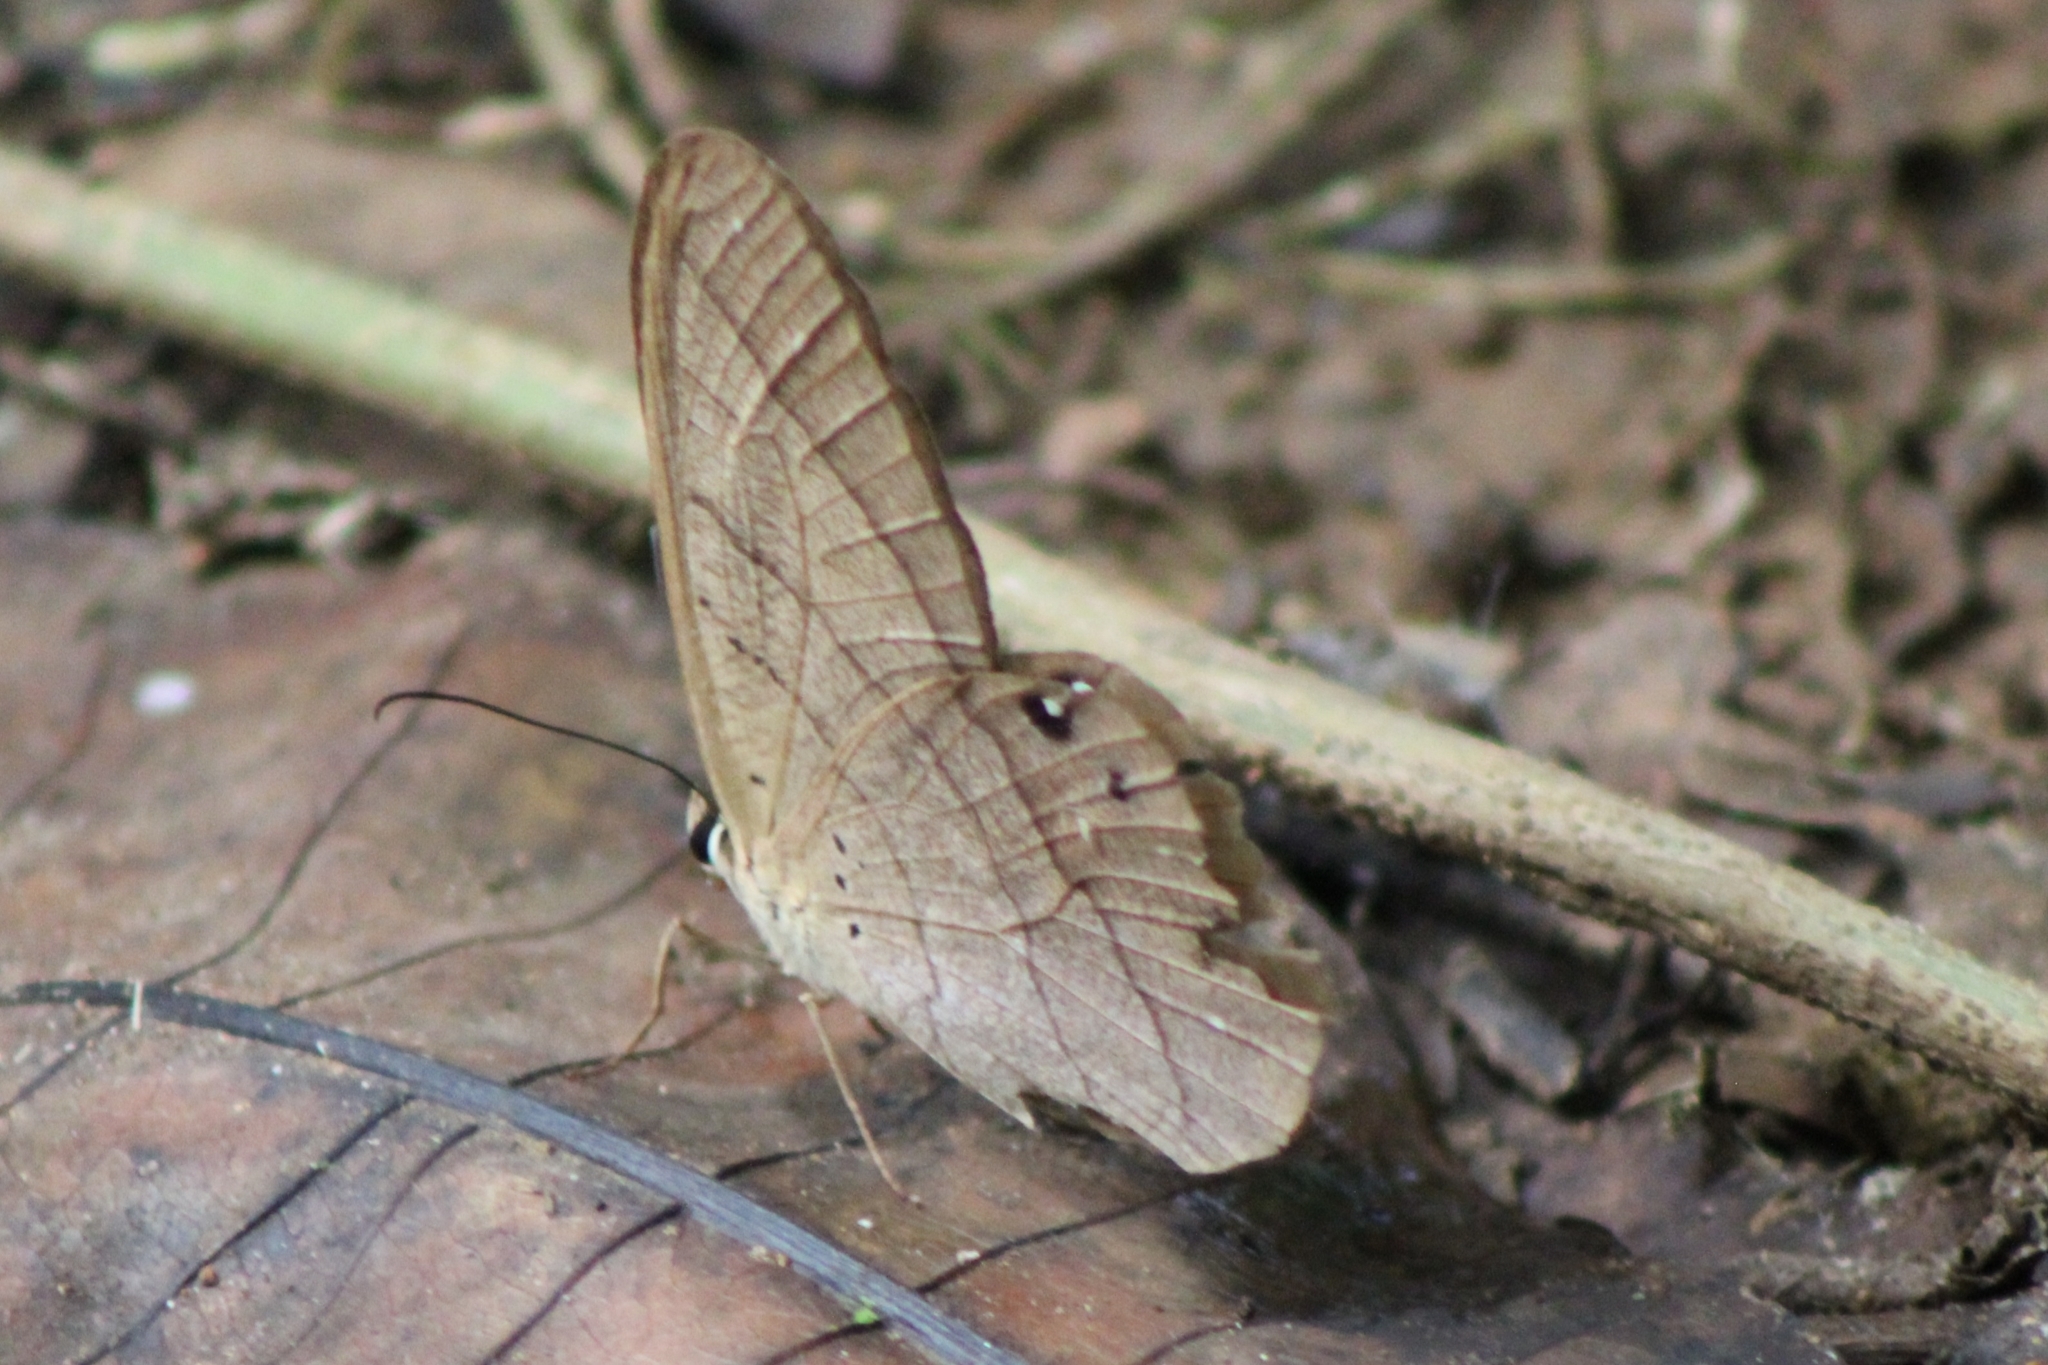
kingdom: Animalia
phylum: Arthropoda
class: Insecta
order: Lepidoptera
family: Nymphalidae
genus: Pierella
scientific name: Pierella luna
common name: Moon satyr
